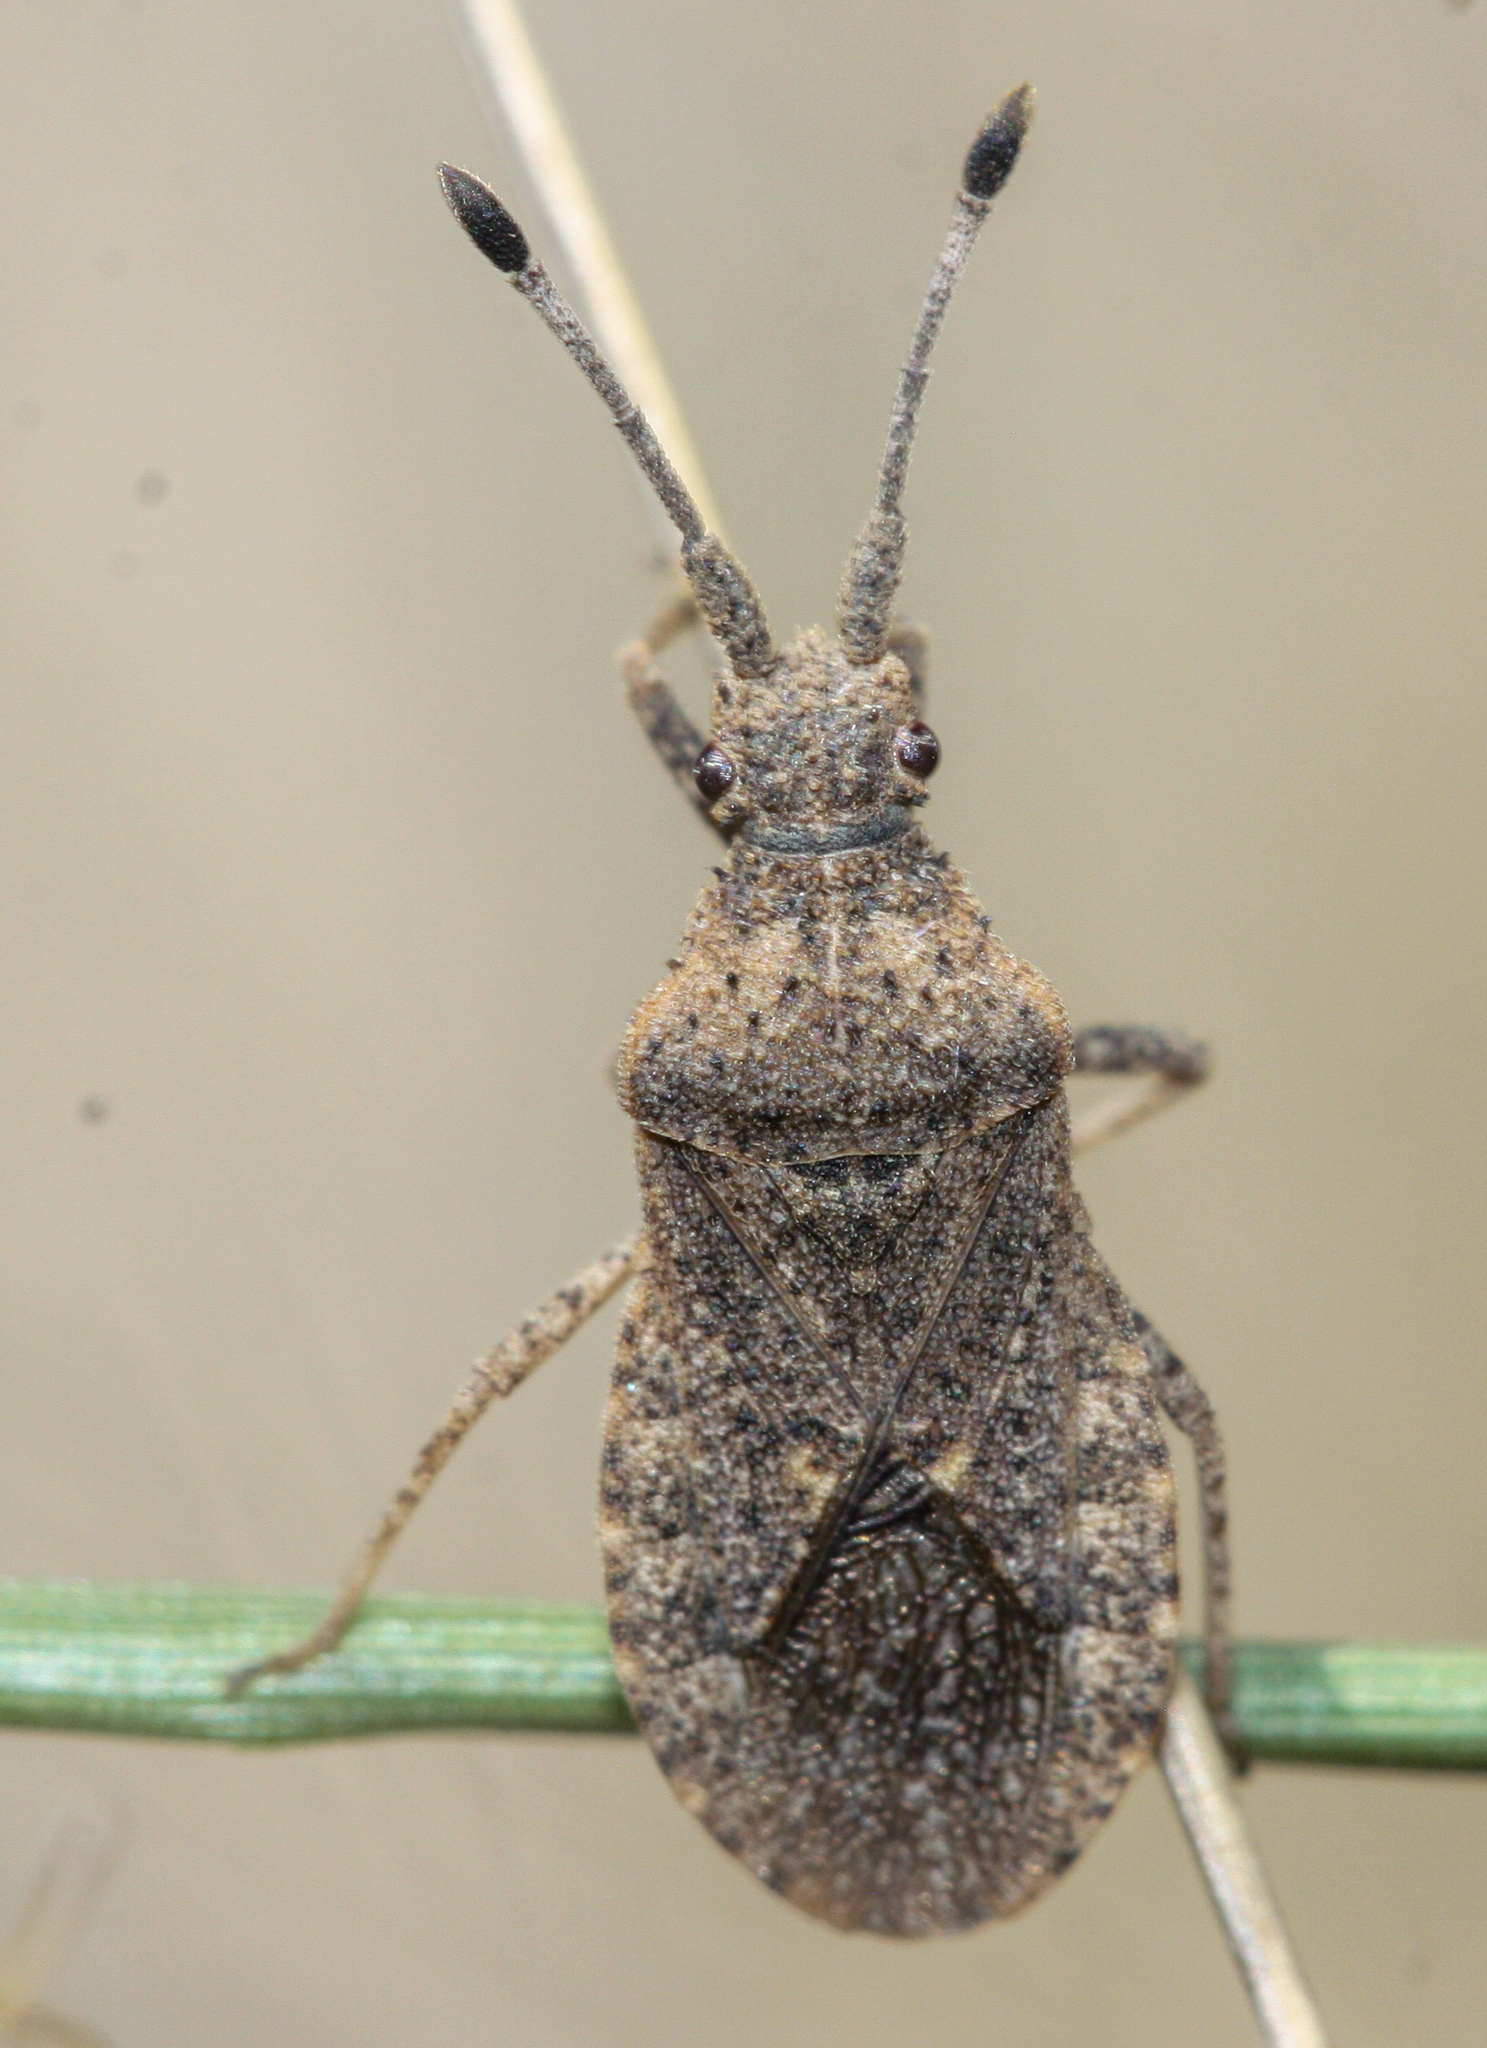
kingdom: Animalia
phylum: Arthropoda
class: Insecta
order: Hemiptera
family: Coreidae
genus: Scolopocerus
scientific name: Scolopocerus uhleri
